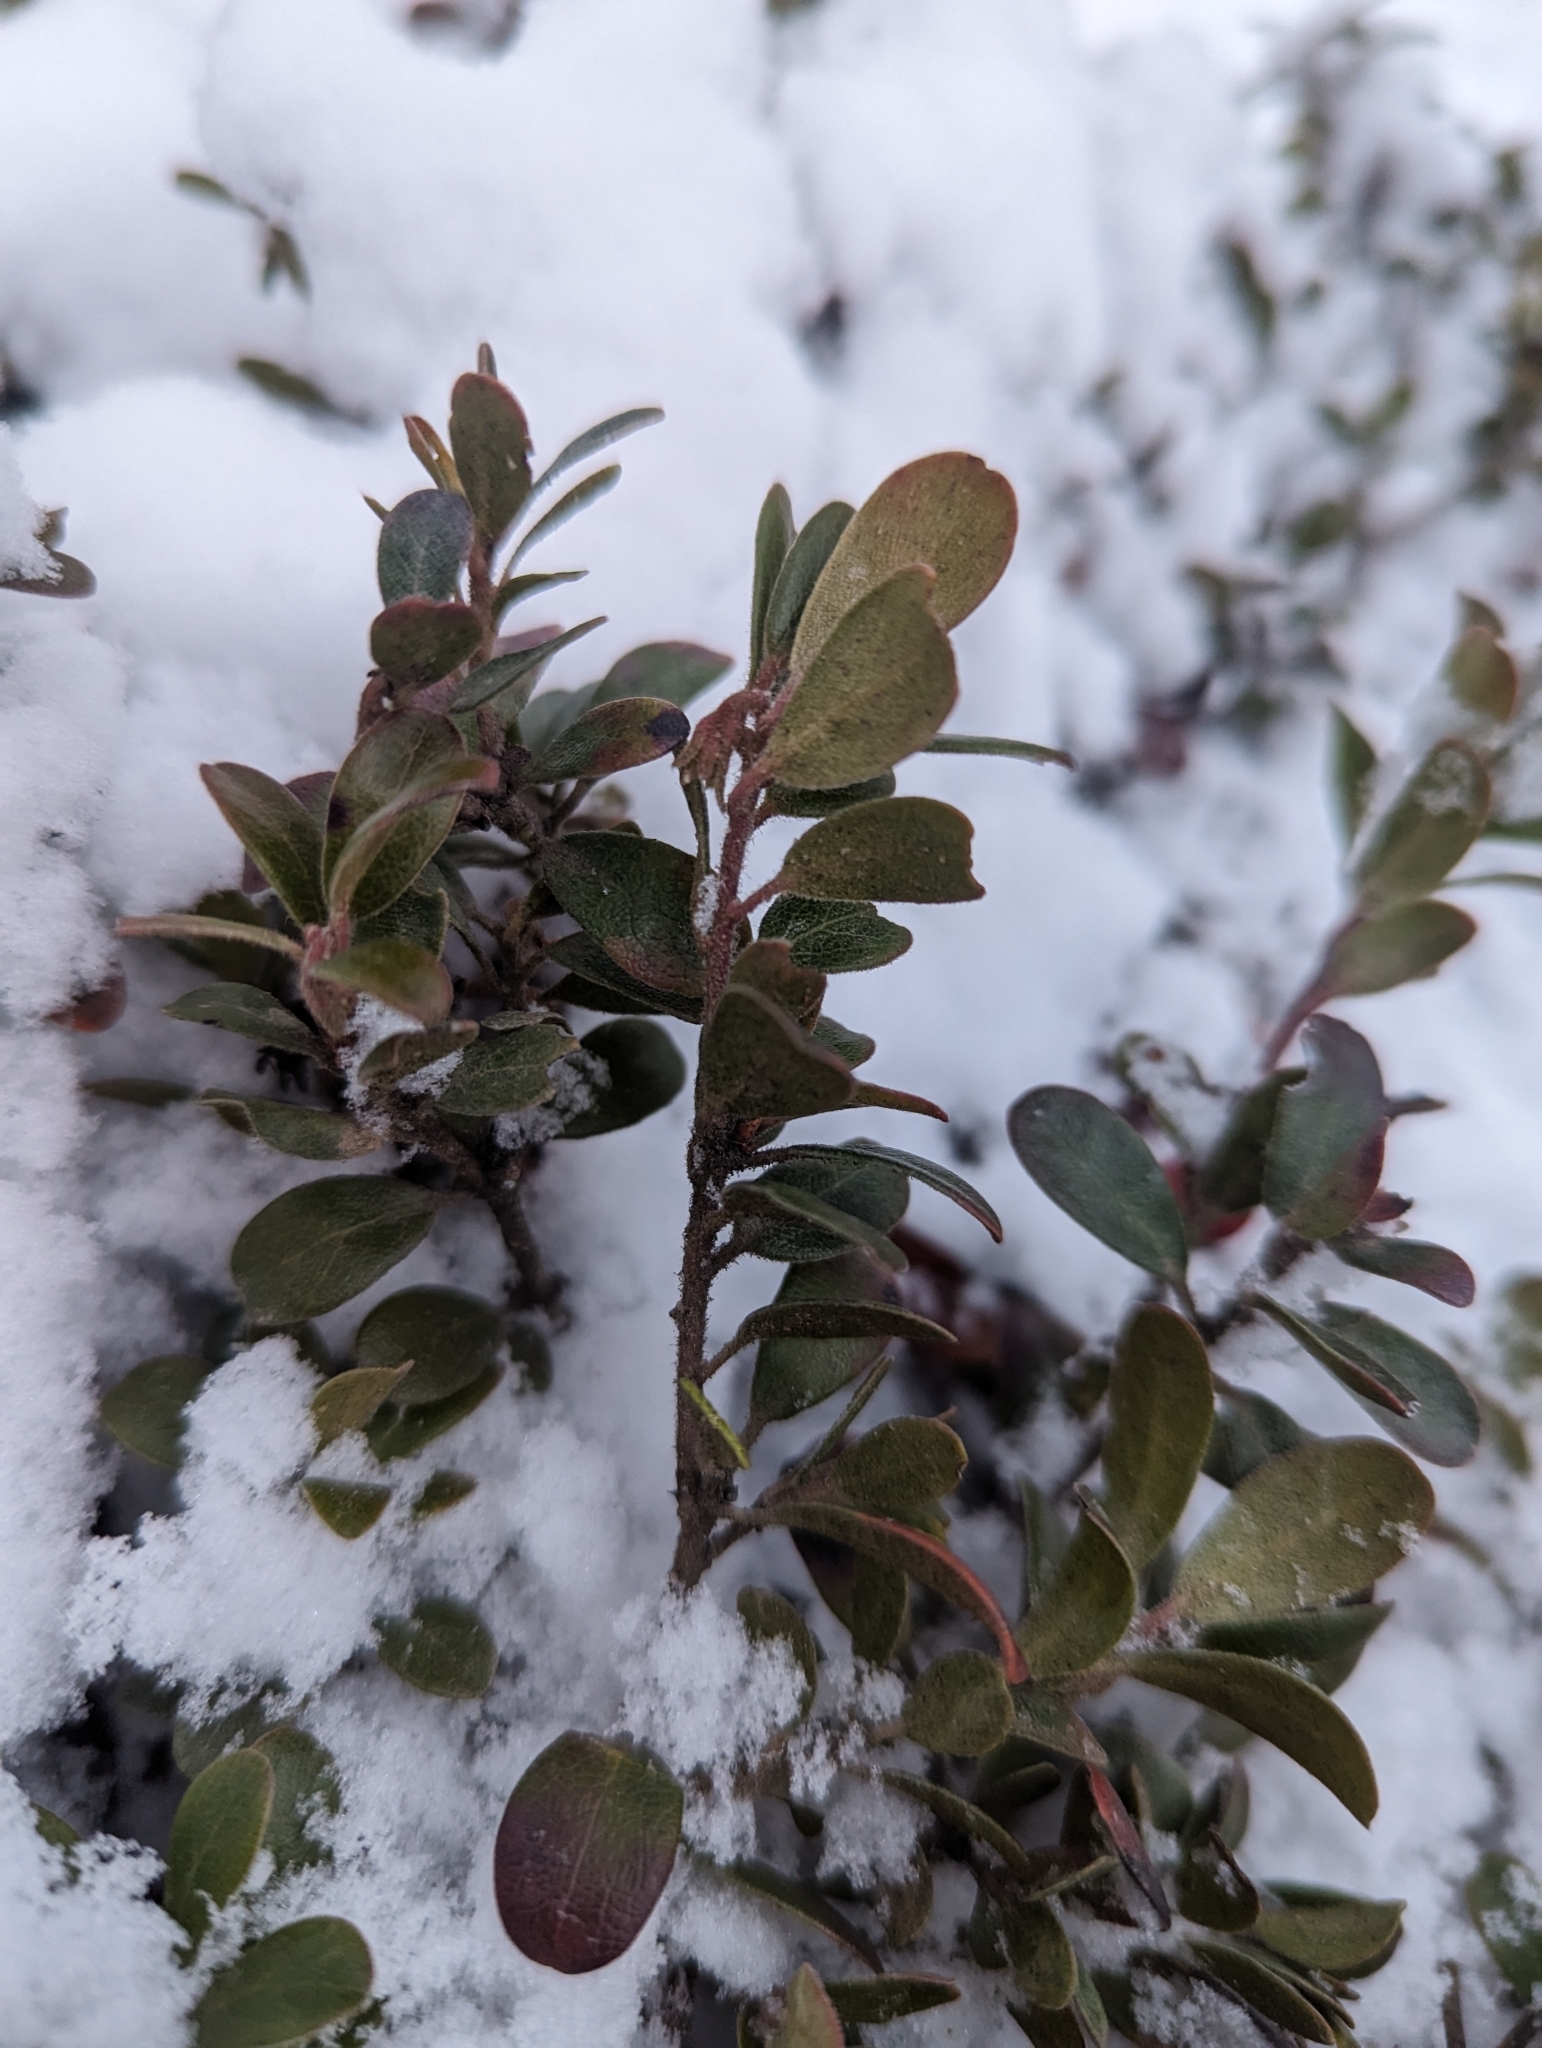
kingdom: Plantae
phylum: Tracheophyta
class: Magnoliopsida
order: Ericales
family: Ericaceae
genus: Arctostaphylos
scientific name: Arctostaphylos uva-ursi
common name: Bearberry
